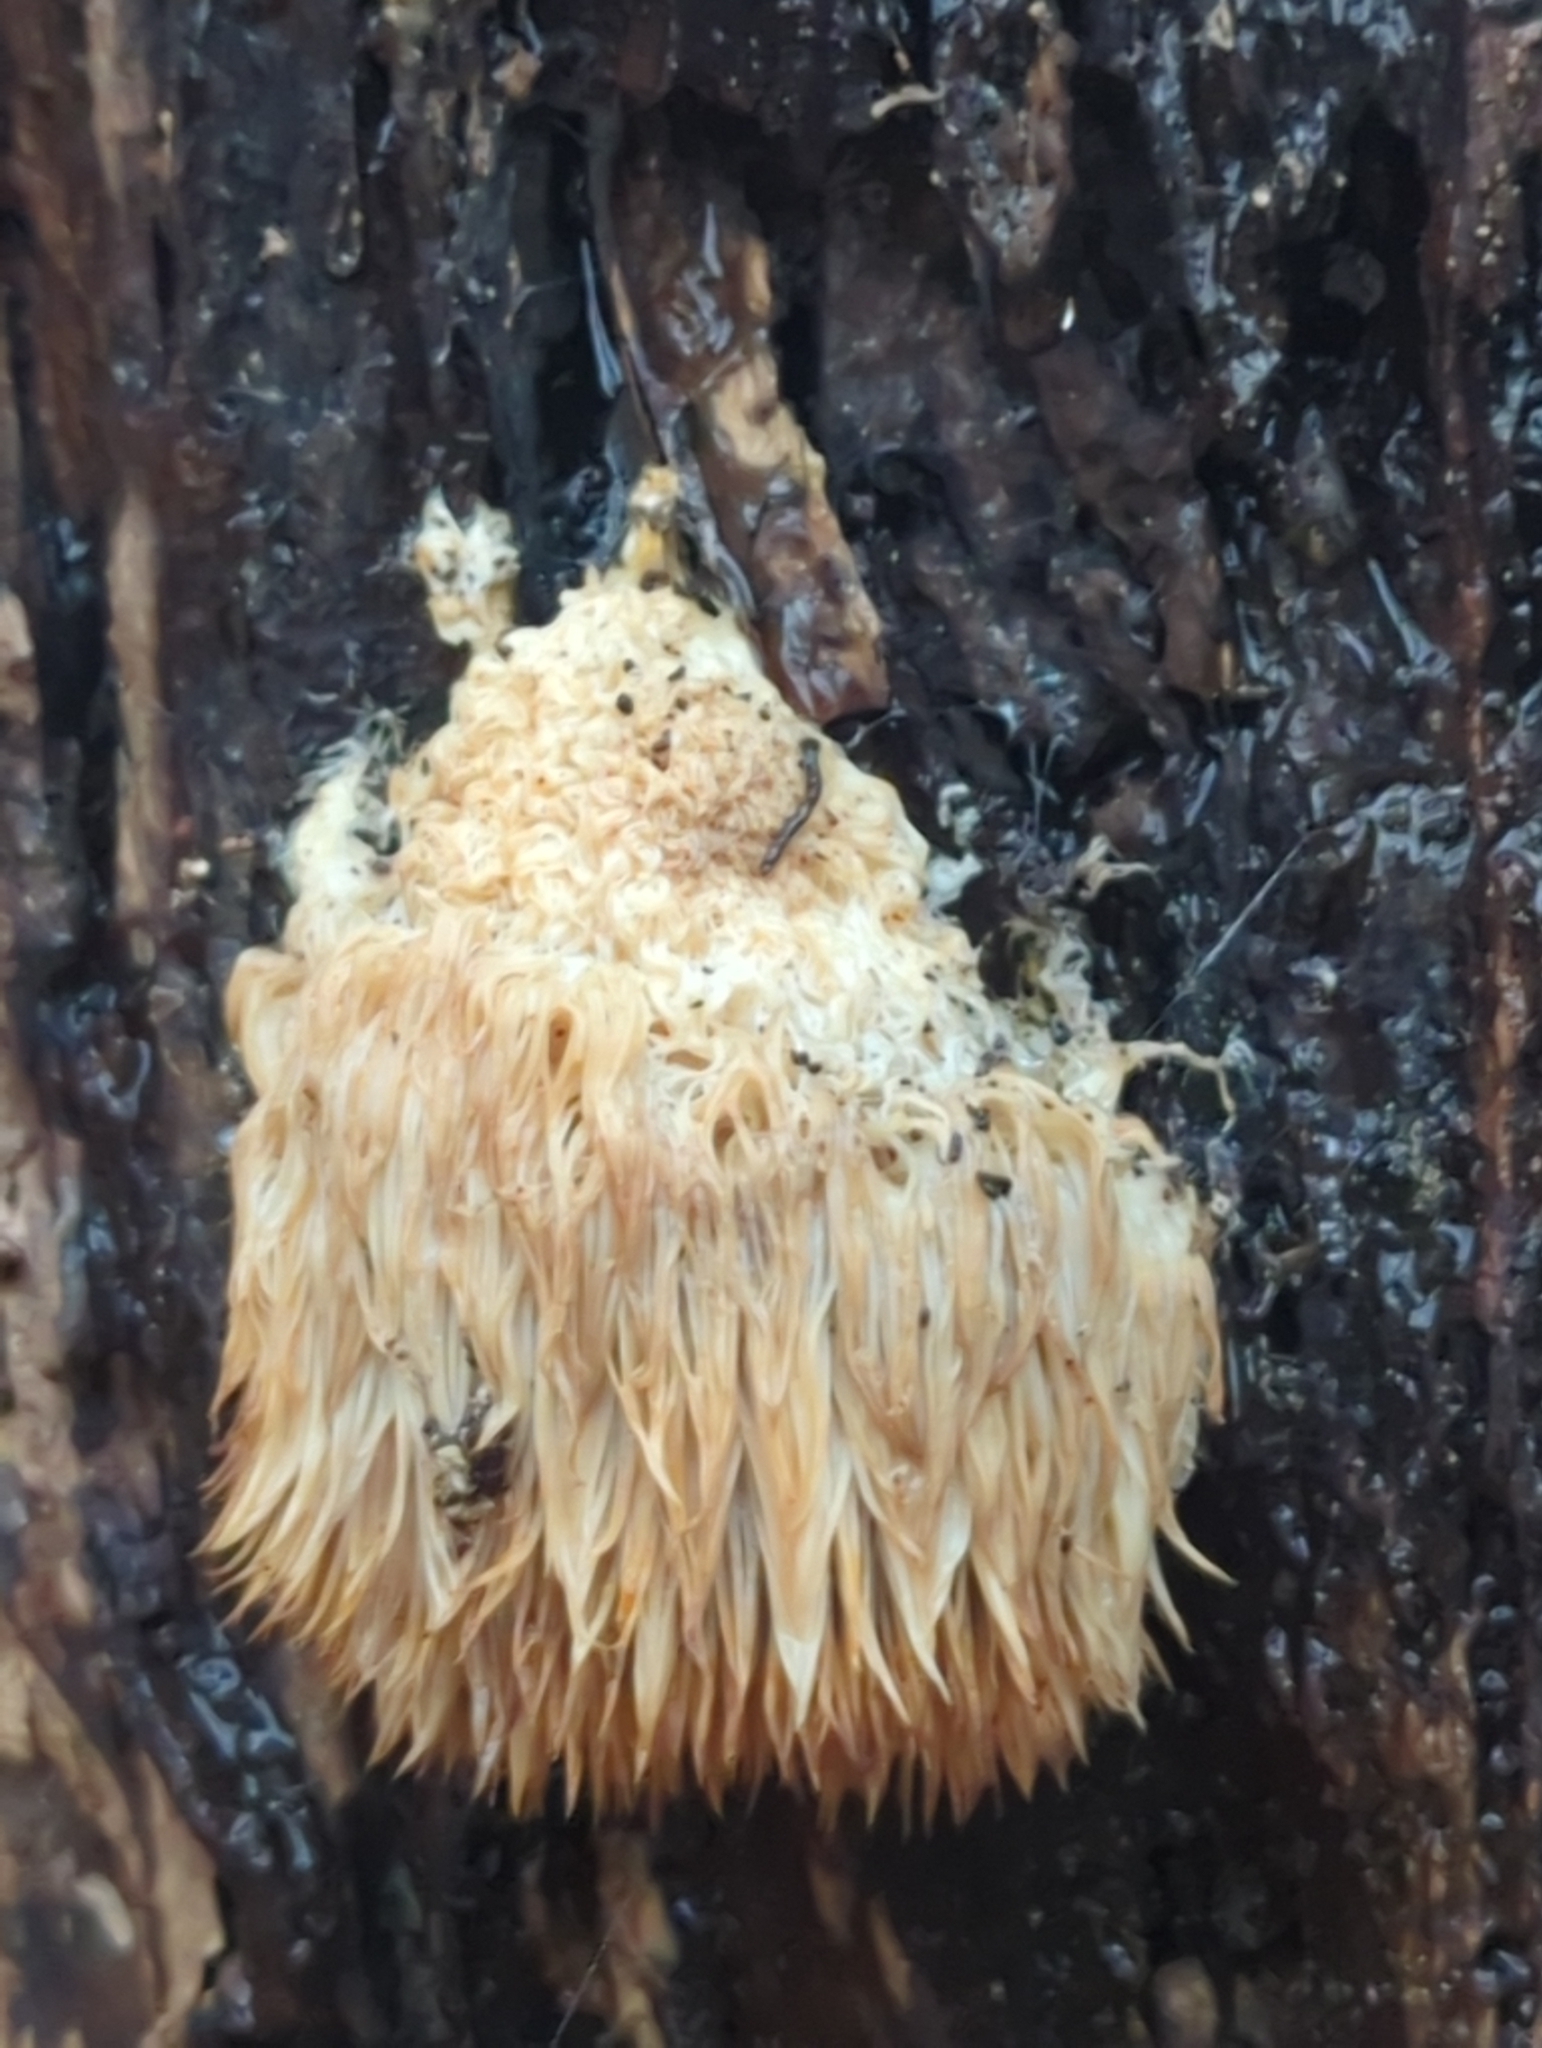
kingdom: Fungi
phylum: Basidiomycota
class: Agaricomycetes
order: Russulales
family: Hericiaceae
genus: Hericium
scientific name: Hericium erinaceus
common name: Bearded tooth
